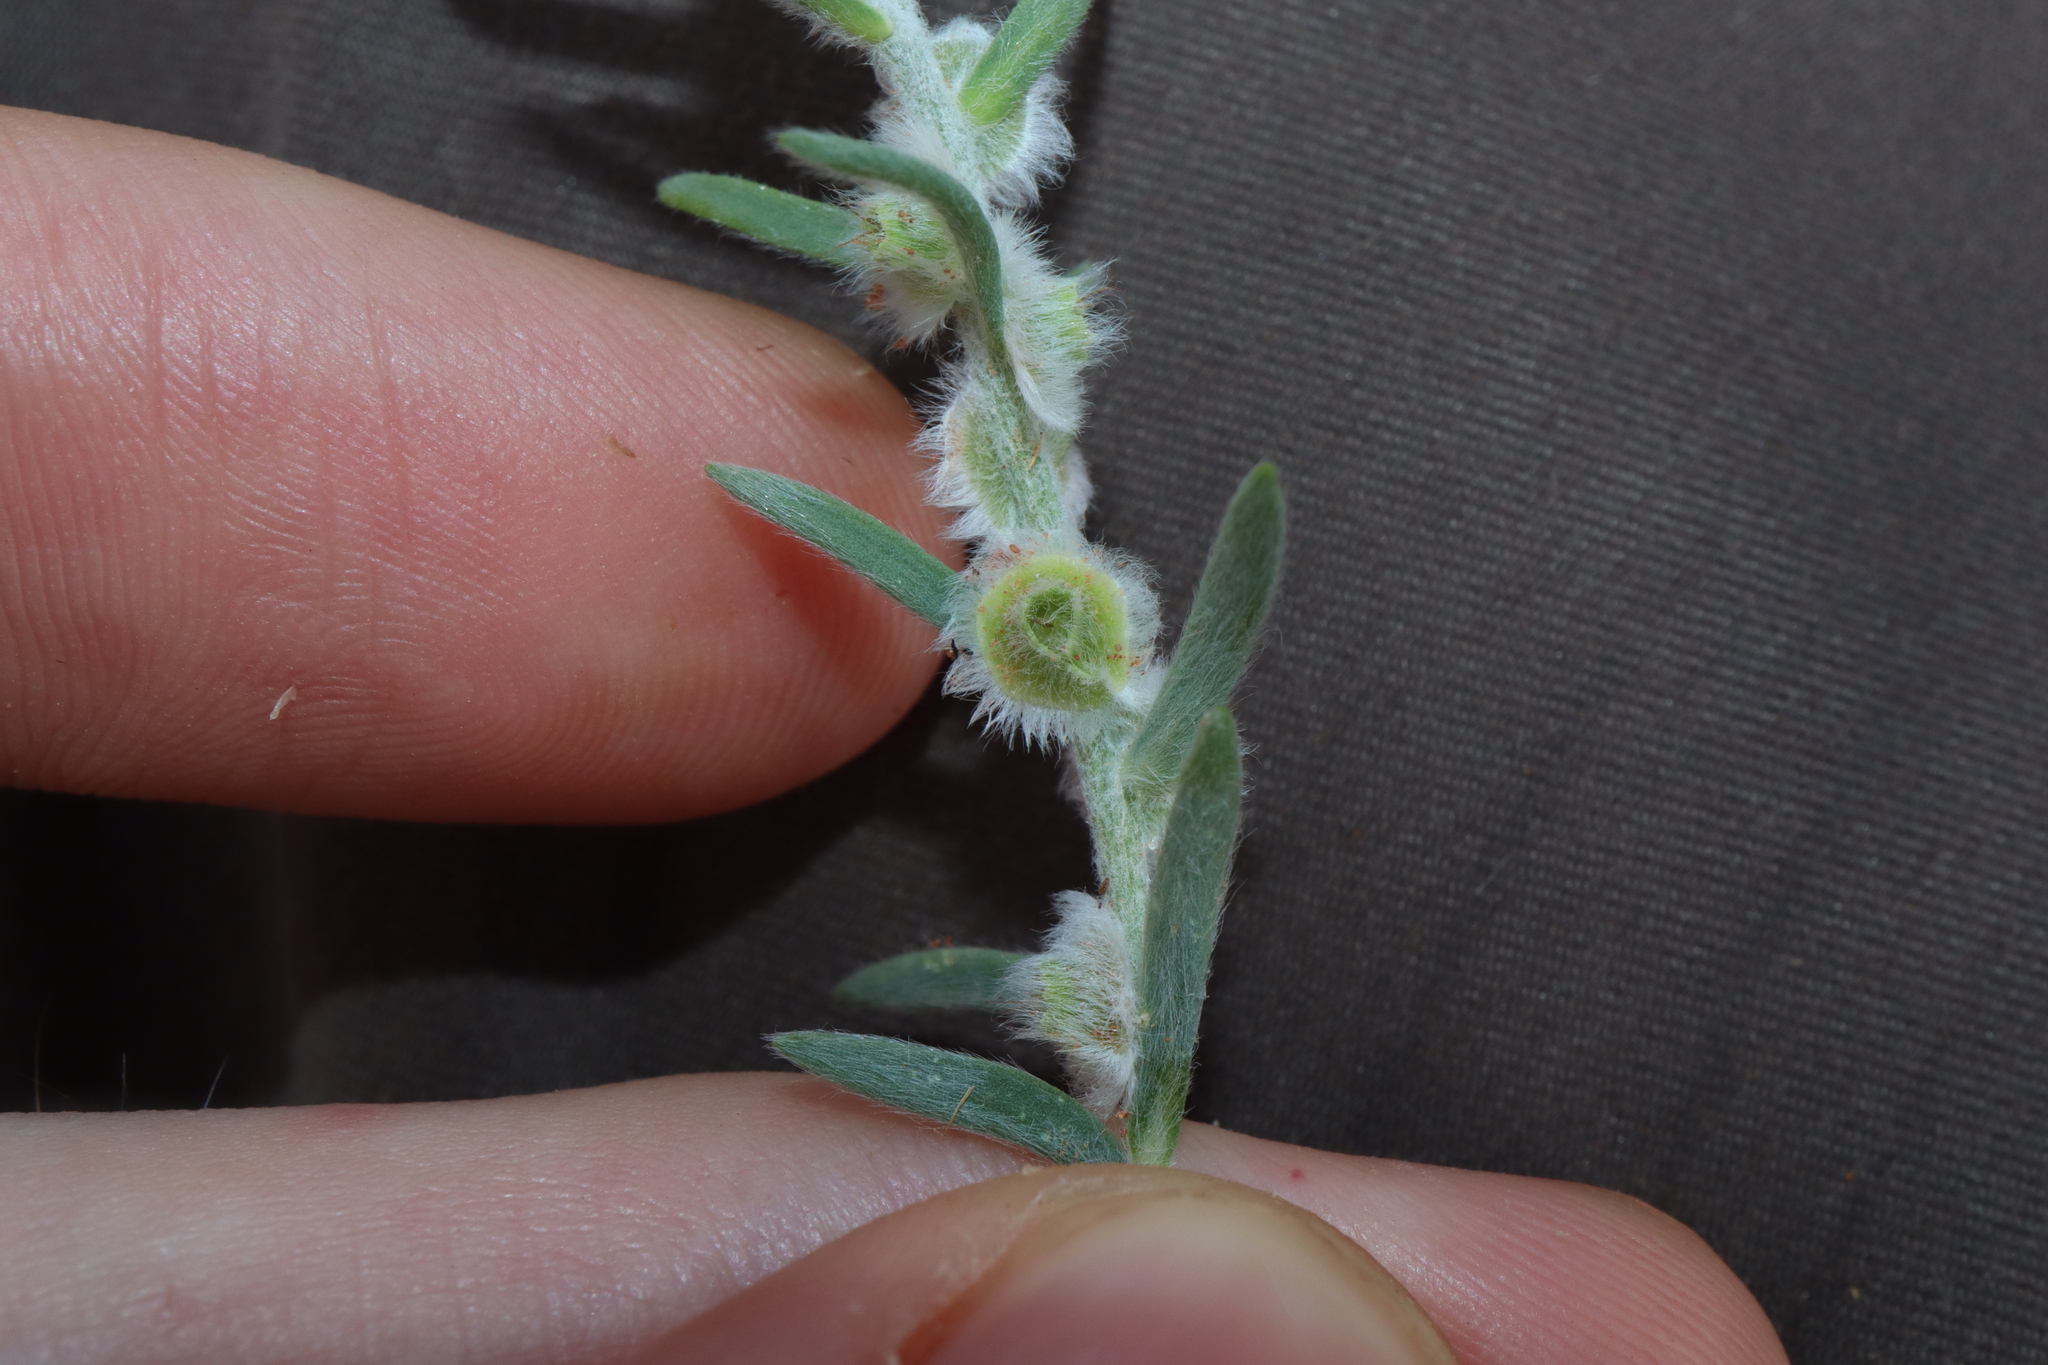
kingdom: Plantae
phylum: Tracheophyta
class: Magnoliopsida
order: Caryophyllales
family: Amaranthaceae
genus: Maireana
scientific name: Maireana coronata
